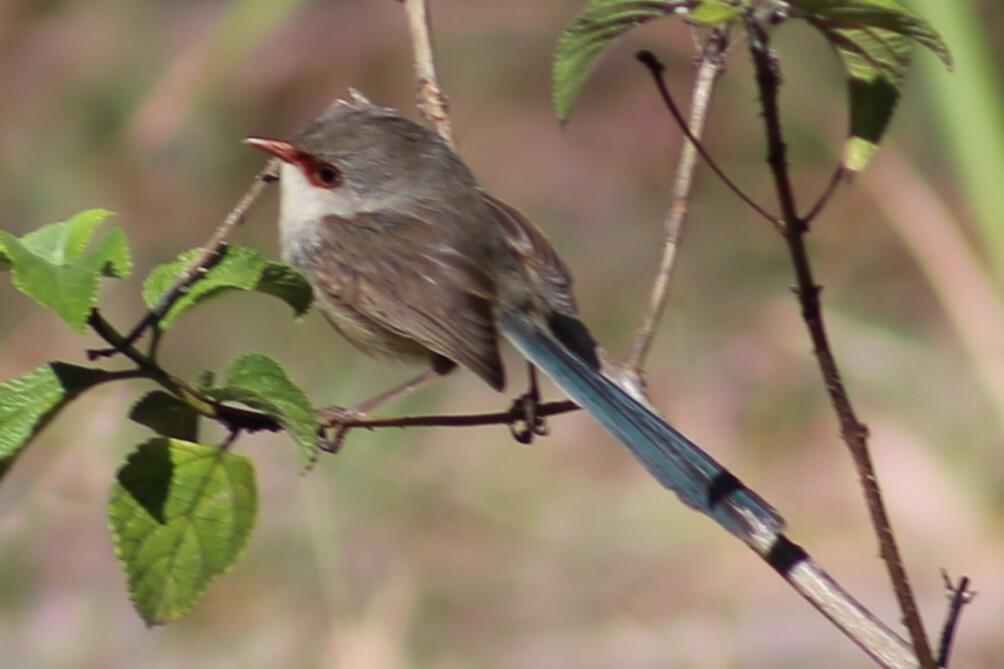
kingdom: Animalia
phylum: Chordata
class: Aves
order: Passeriformes
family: Maluridae
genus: Malurus
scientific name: Malurus lamberti
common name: Variegated fairywren
